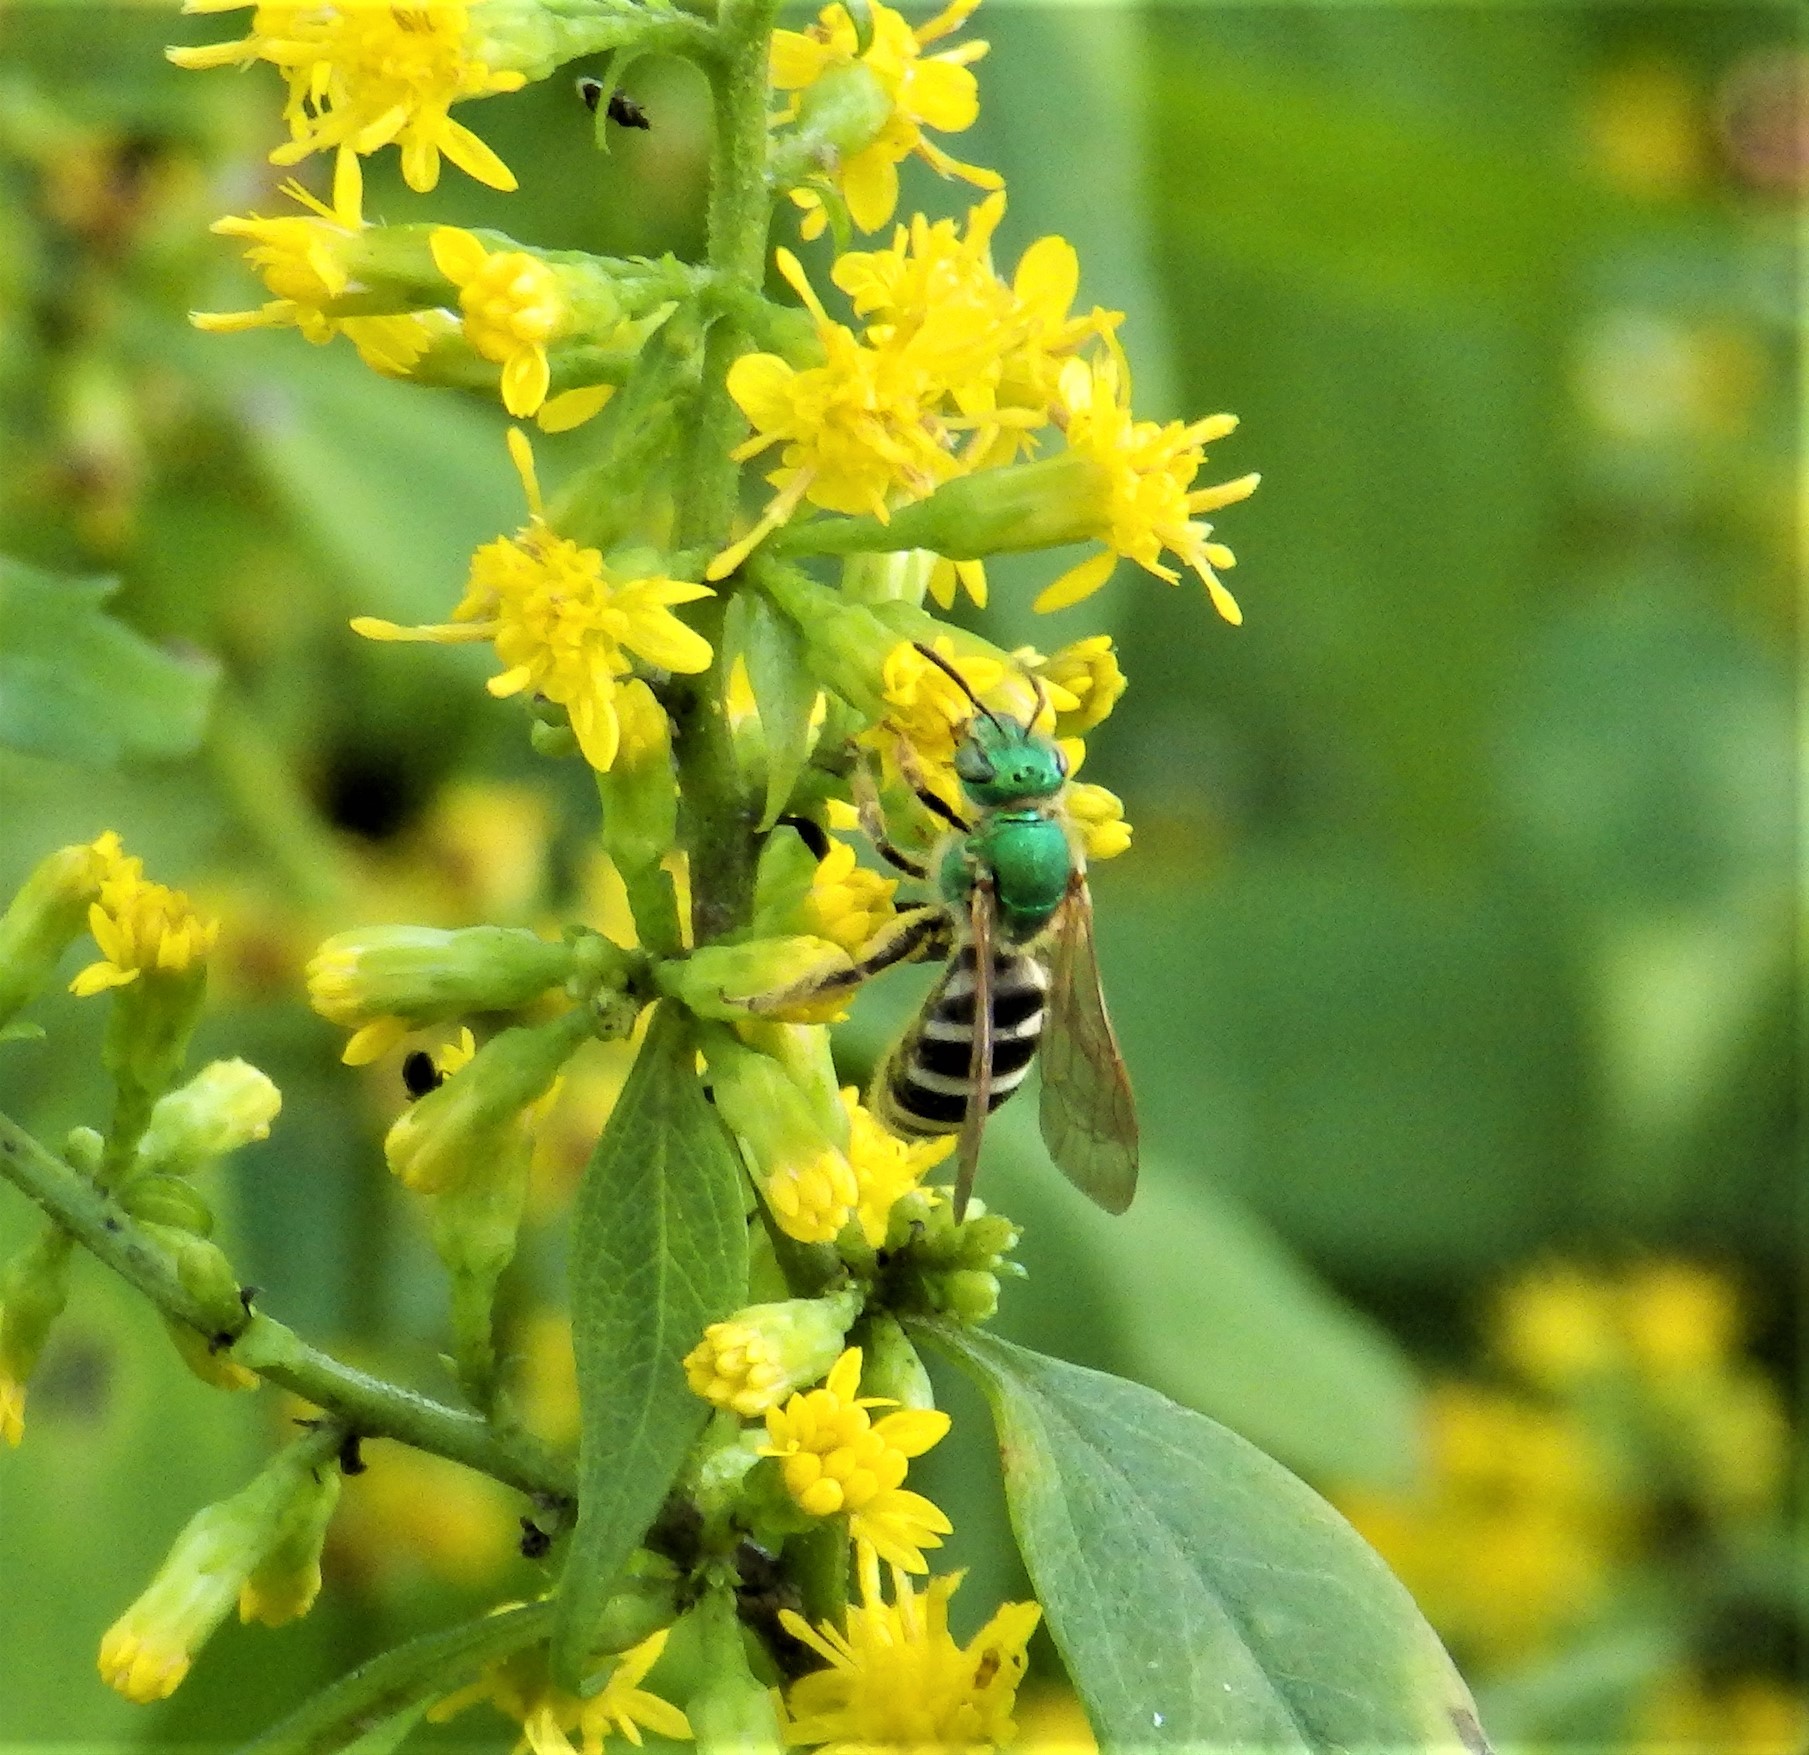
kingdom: Animalia
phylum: Arthropoda
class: Insecta
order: Hymenoptera
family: Halictidae
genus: Agapostemon
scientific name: Agapostemon virescens
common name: Bicolored striped sweat bee
